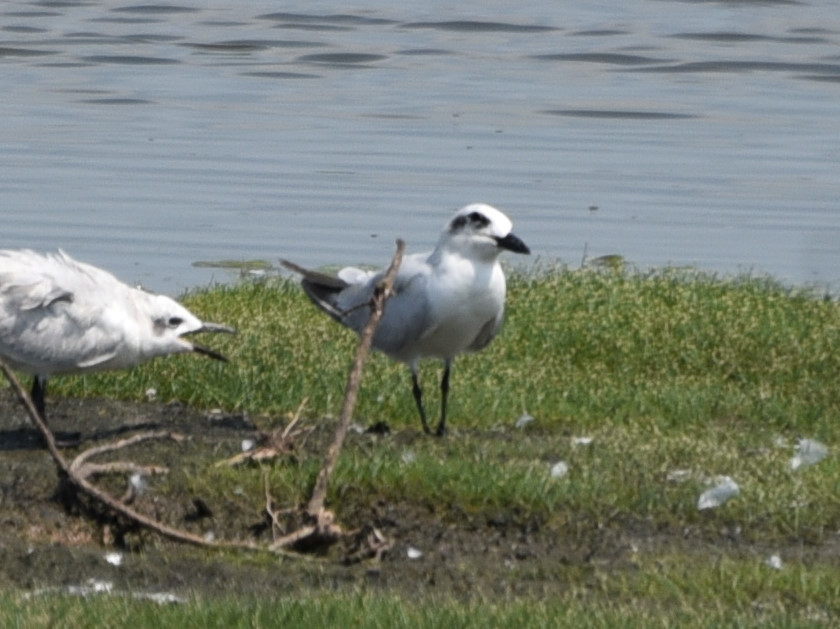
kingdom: Animalia
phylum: Chordata
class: Aves
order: Charadriiformes
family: Laridae
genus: Gelochelidon
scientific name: Gelochelidon nilotica
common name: Gull-billed tern
